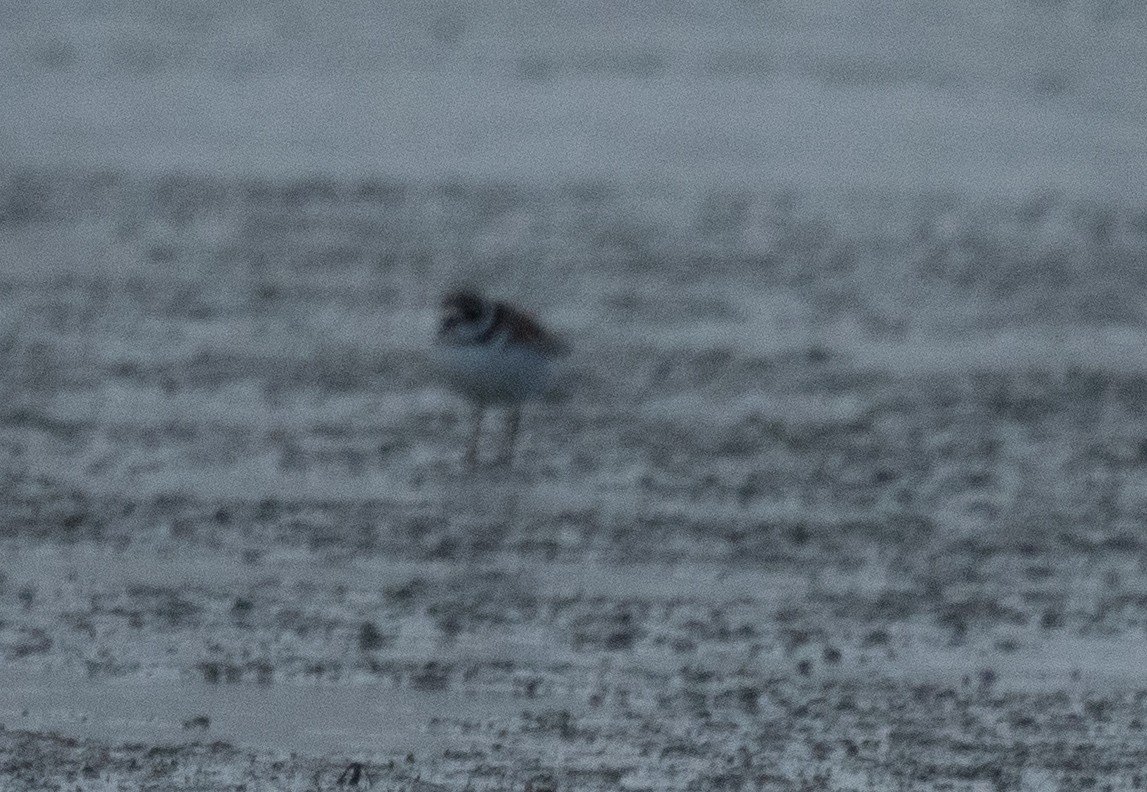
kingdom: Animalia
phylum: Chordata
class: Aves
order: Charadriiformes
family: Charadriidae
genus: Charadrius
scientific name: Charadrius semipalmatus
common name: Semipalmated plover
